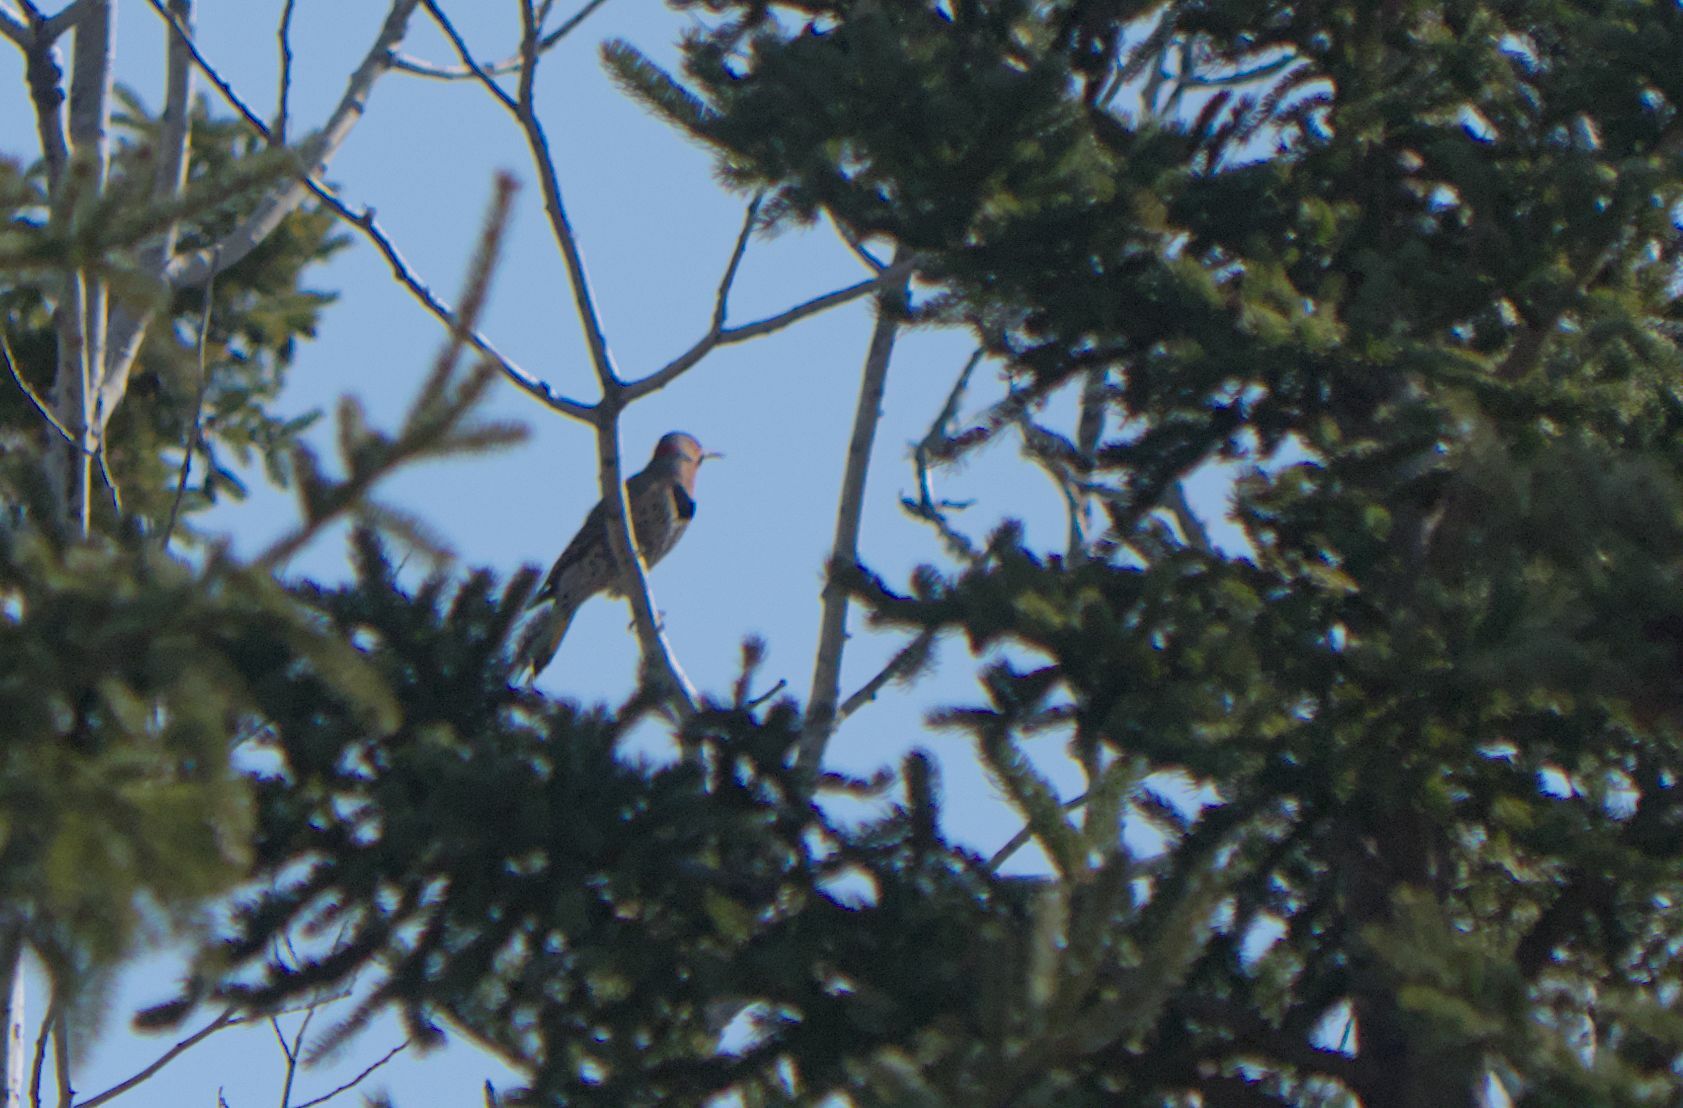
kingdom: Animalia
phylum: Chordata
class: Aves
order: Piciformes
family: Picidae
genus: Colaptes
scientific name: Colaptes auratus
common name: Northern flicker
